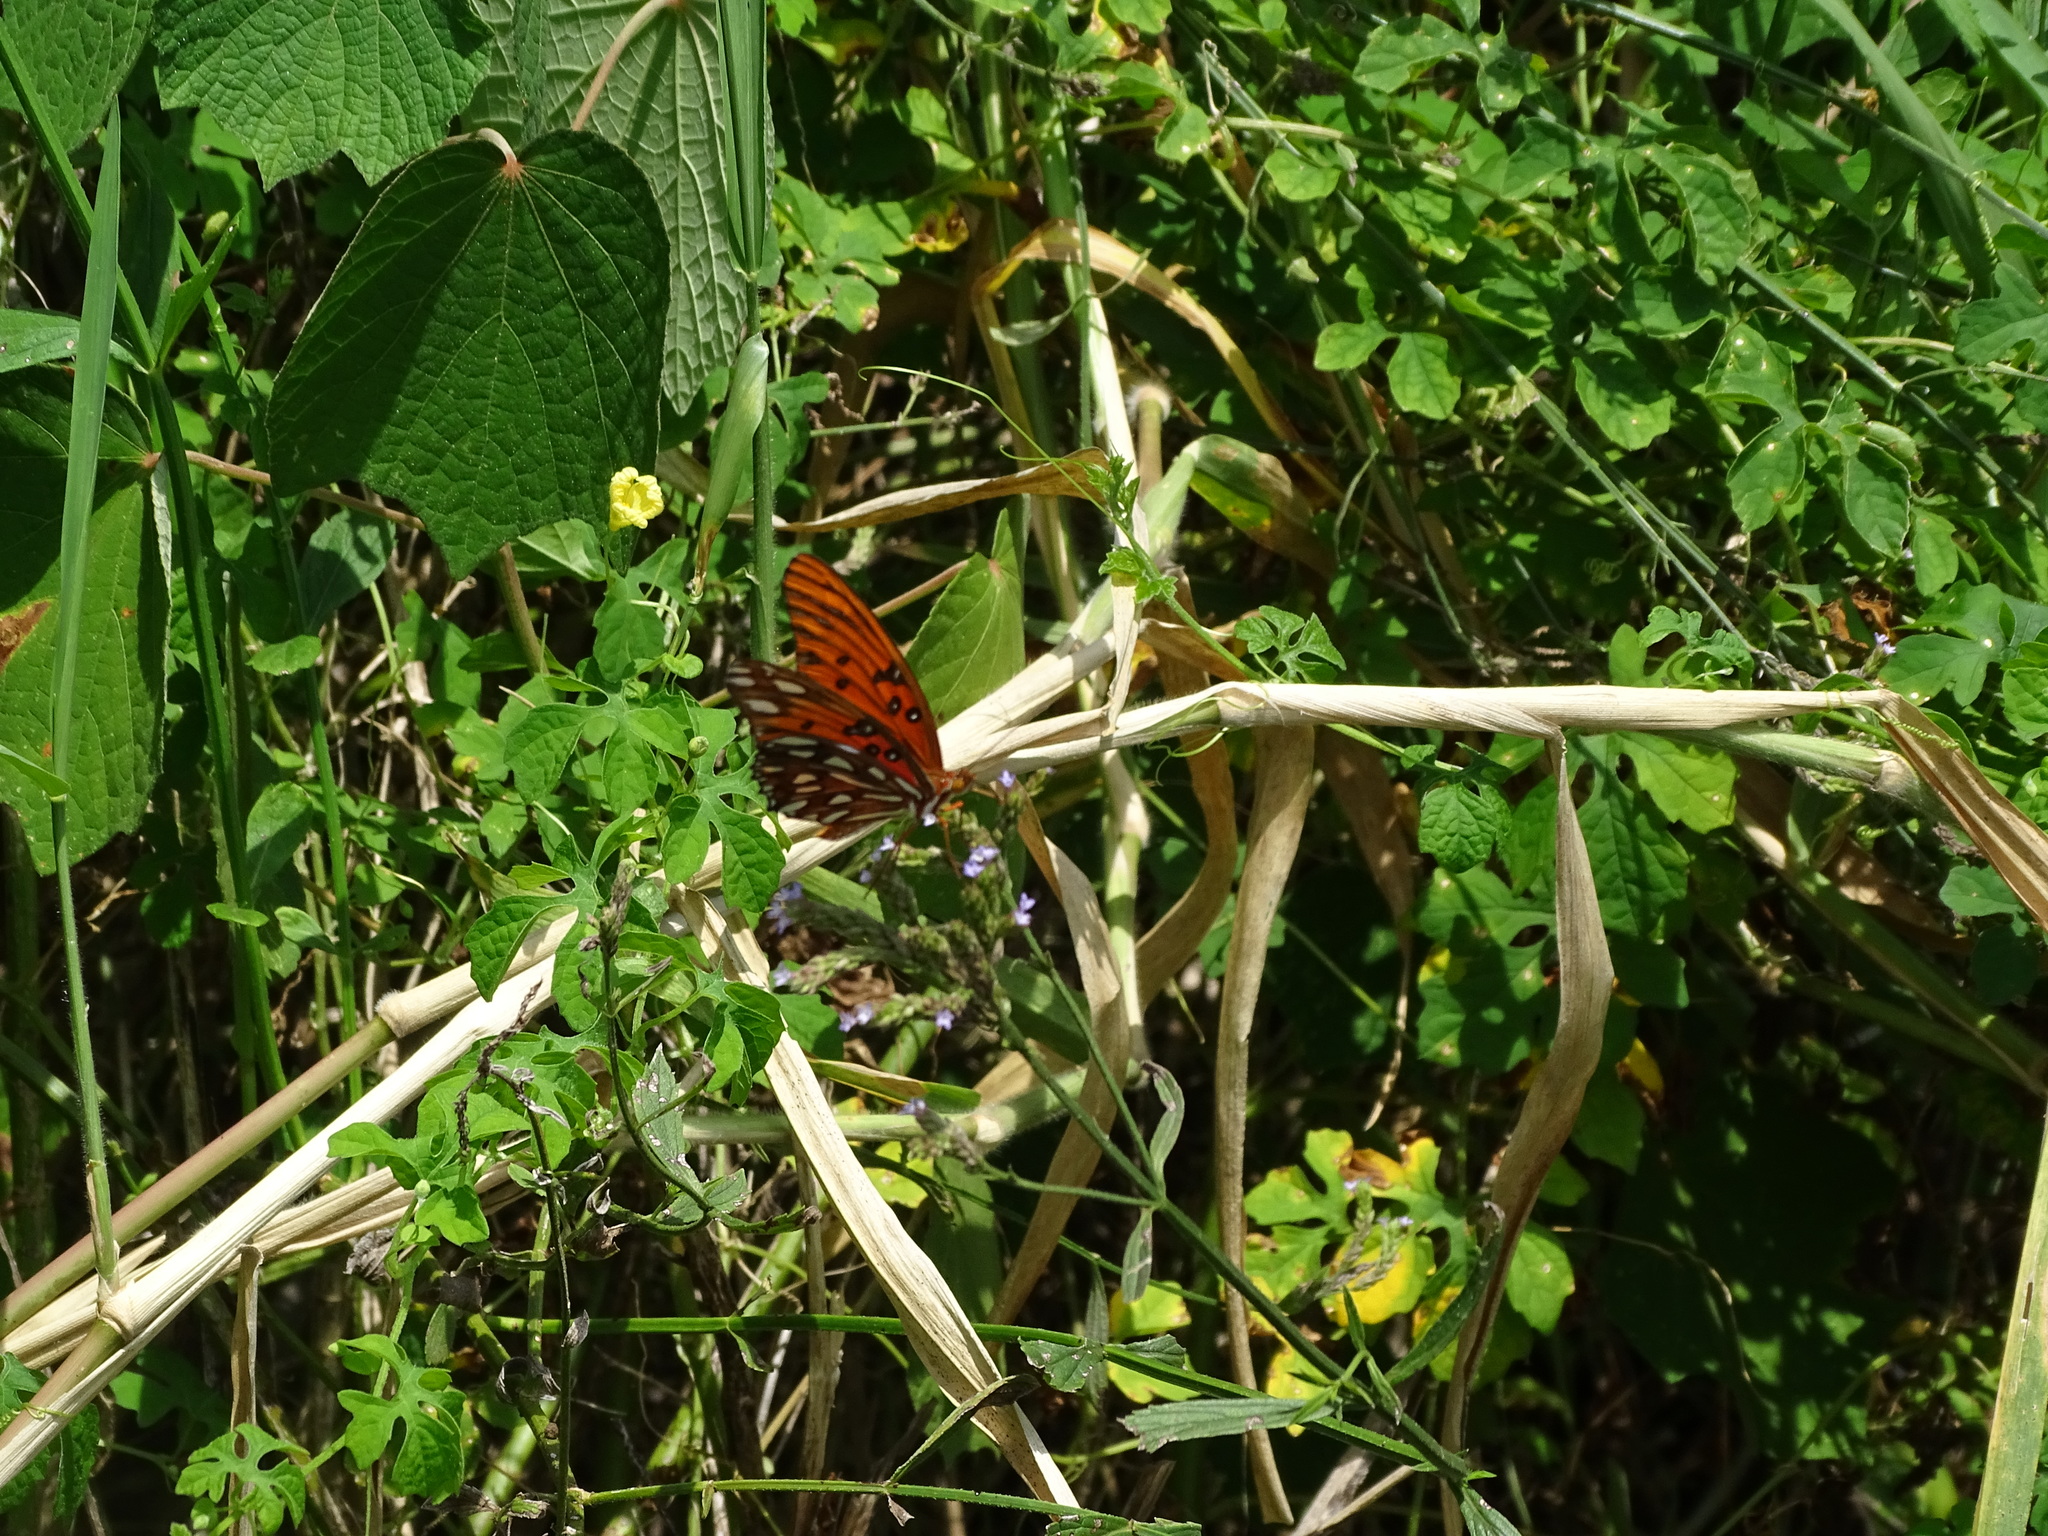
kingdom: Animalia
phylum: Arthropoda
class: Insecta
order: Lepidoptera
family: Nymphalidae
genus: Dione
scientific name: Dione vanillae
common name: Gulf fritillary
